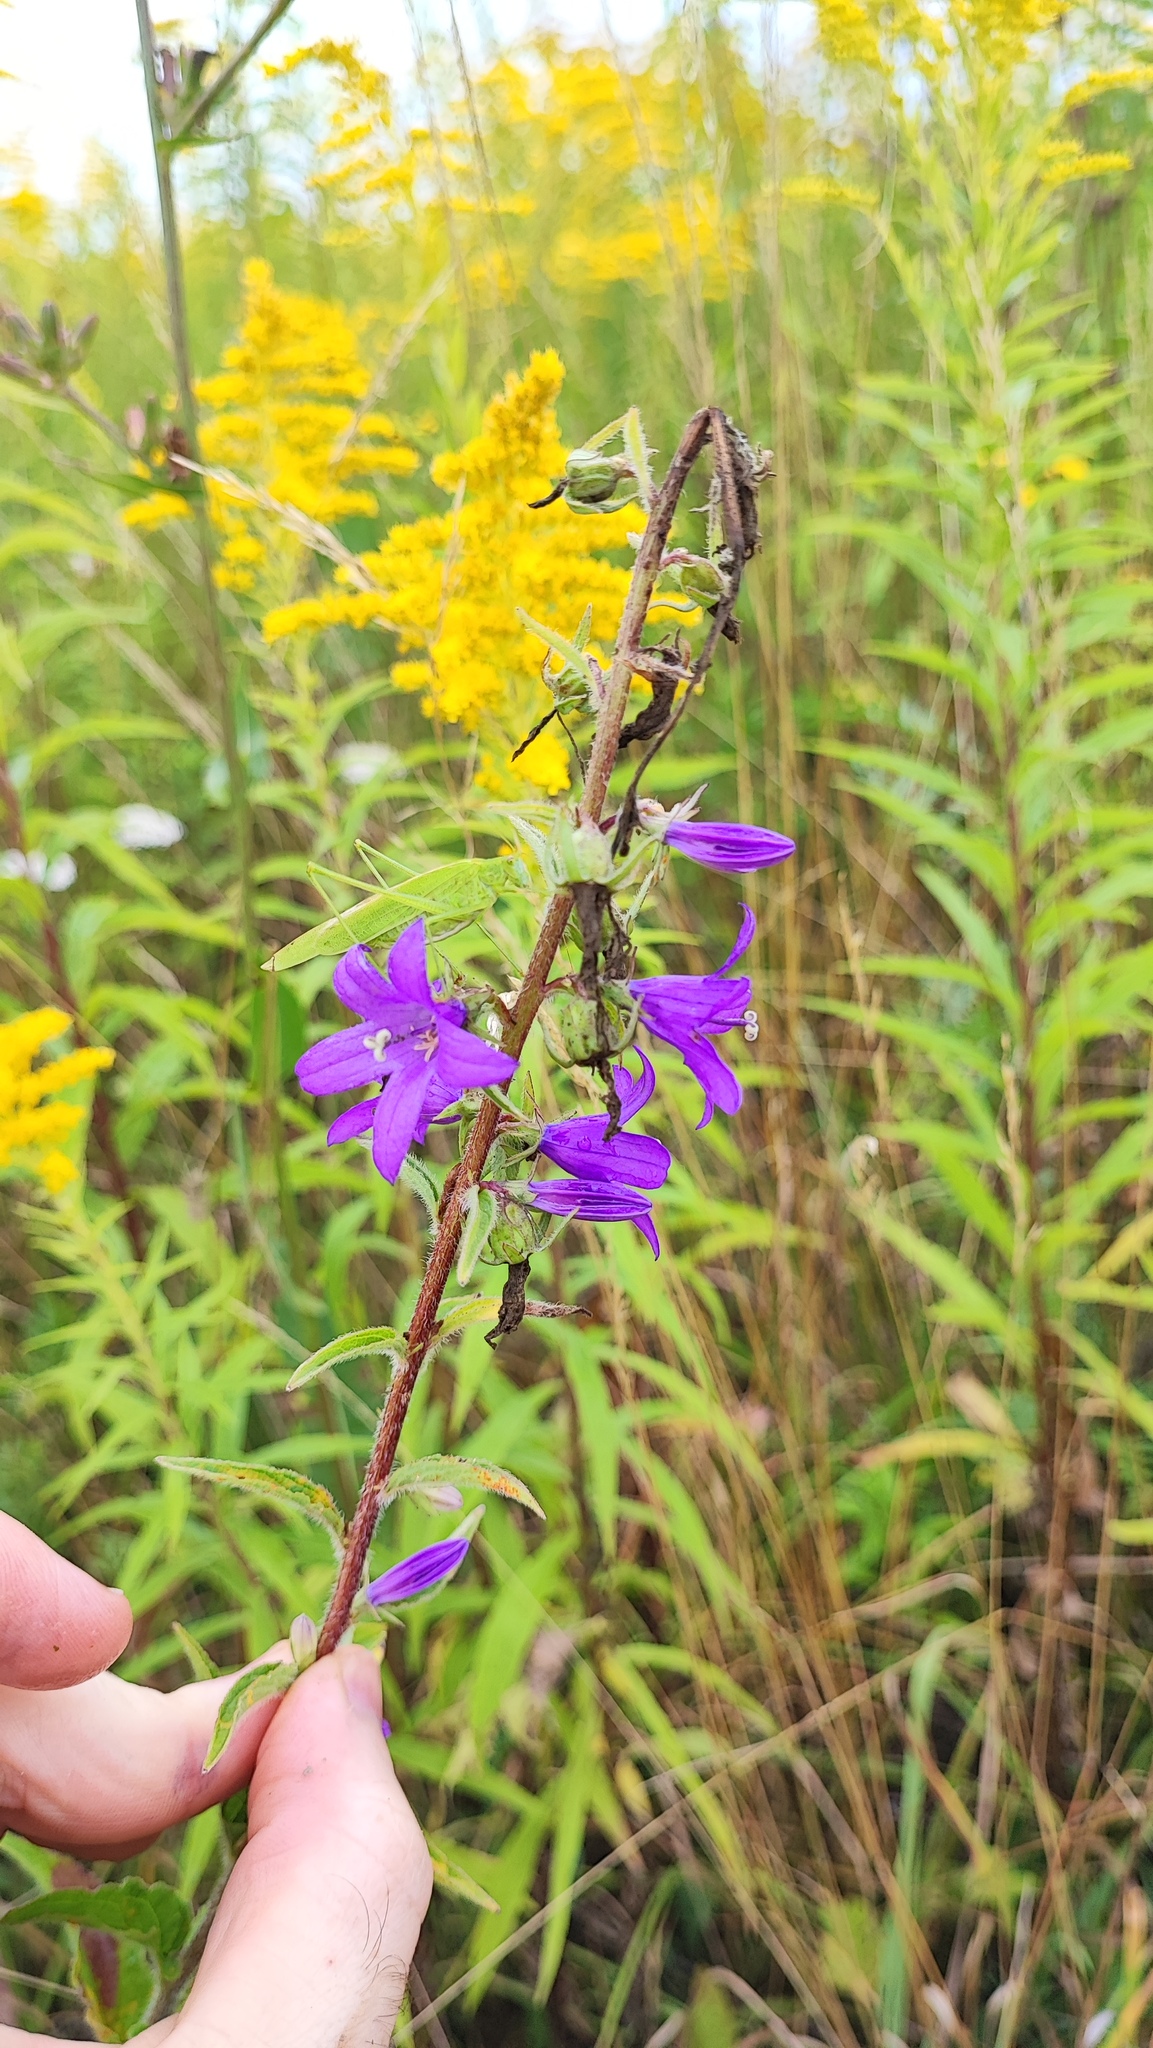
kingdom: Plantae
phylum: Tracheophyta
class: Magnoliopsida
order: Asterales
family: Campanulaceae
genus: Campanula
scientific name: Campanula rapunculoides
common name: Creeping bellflower
